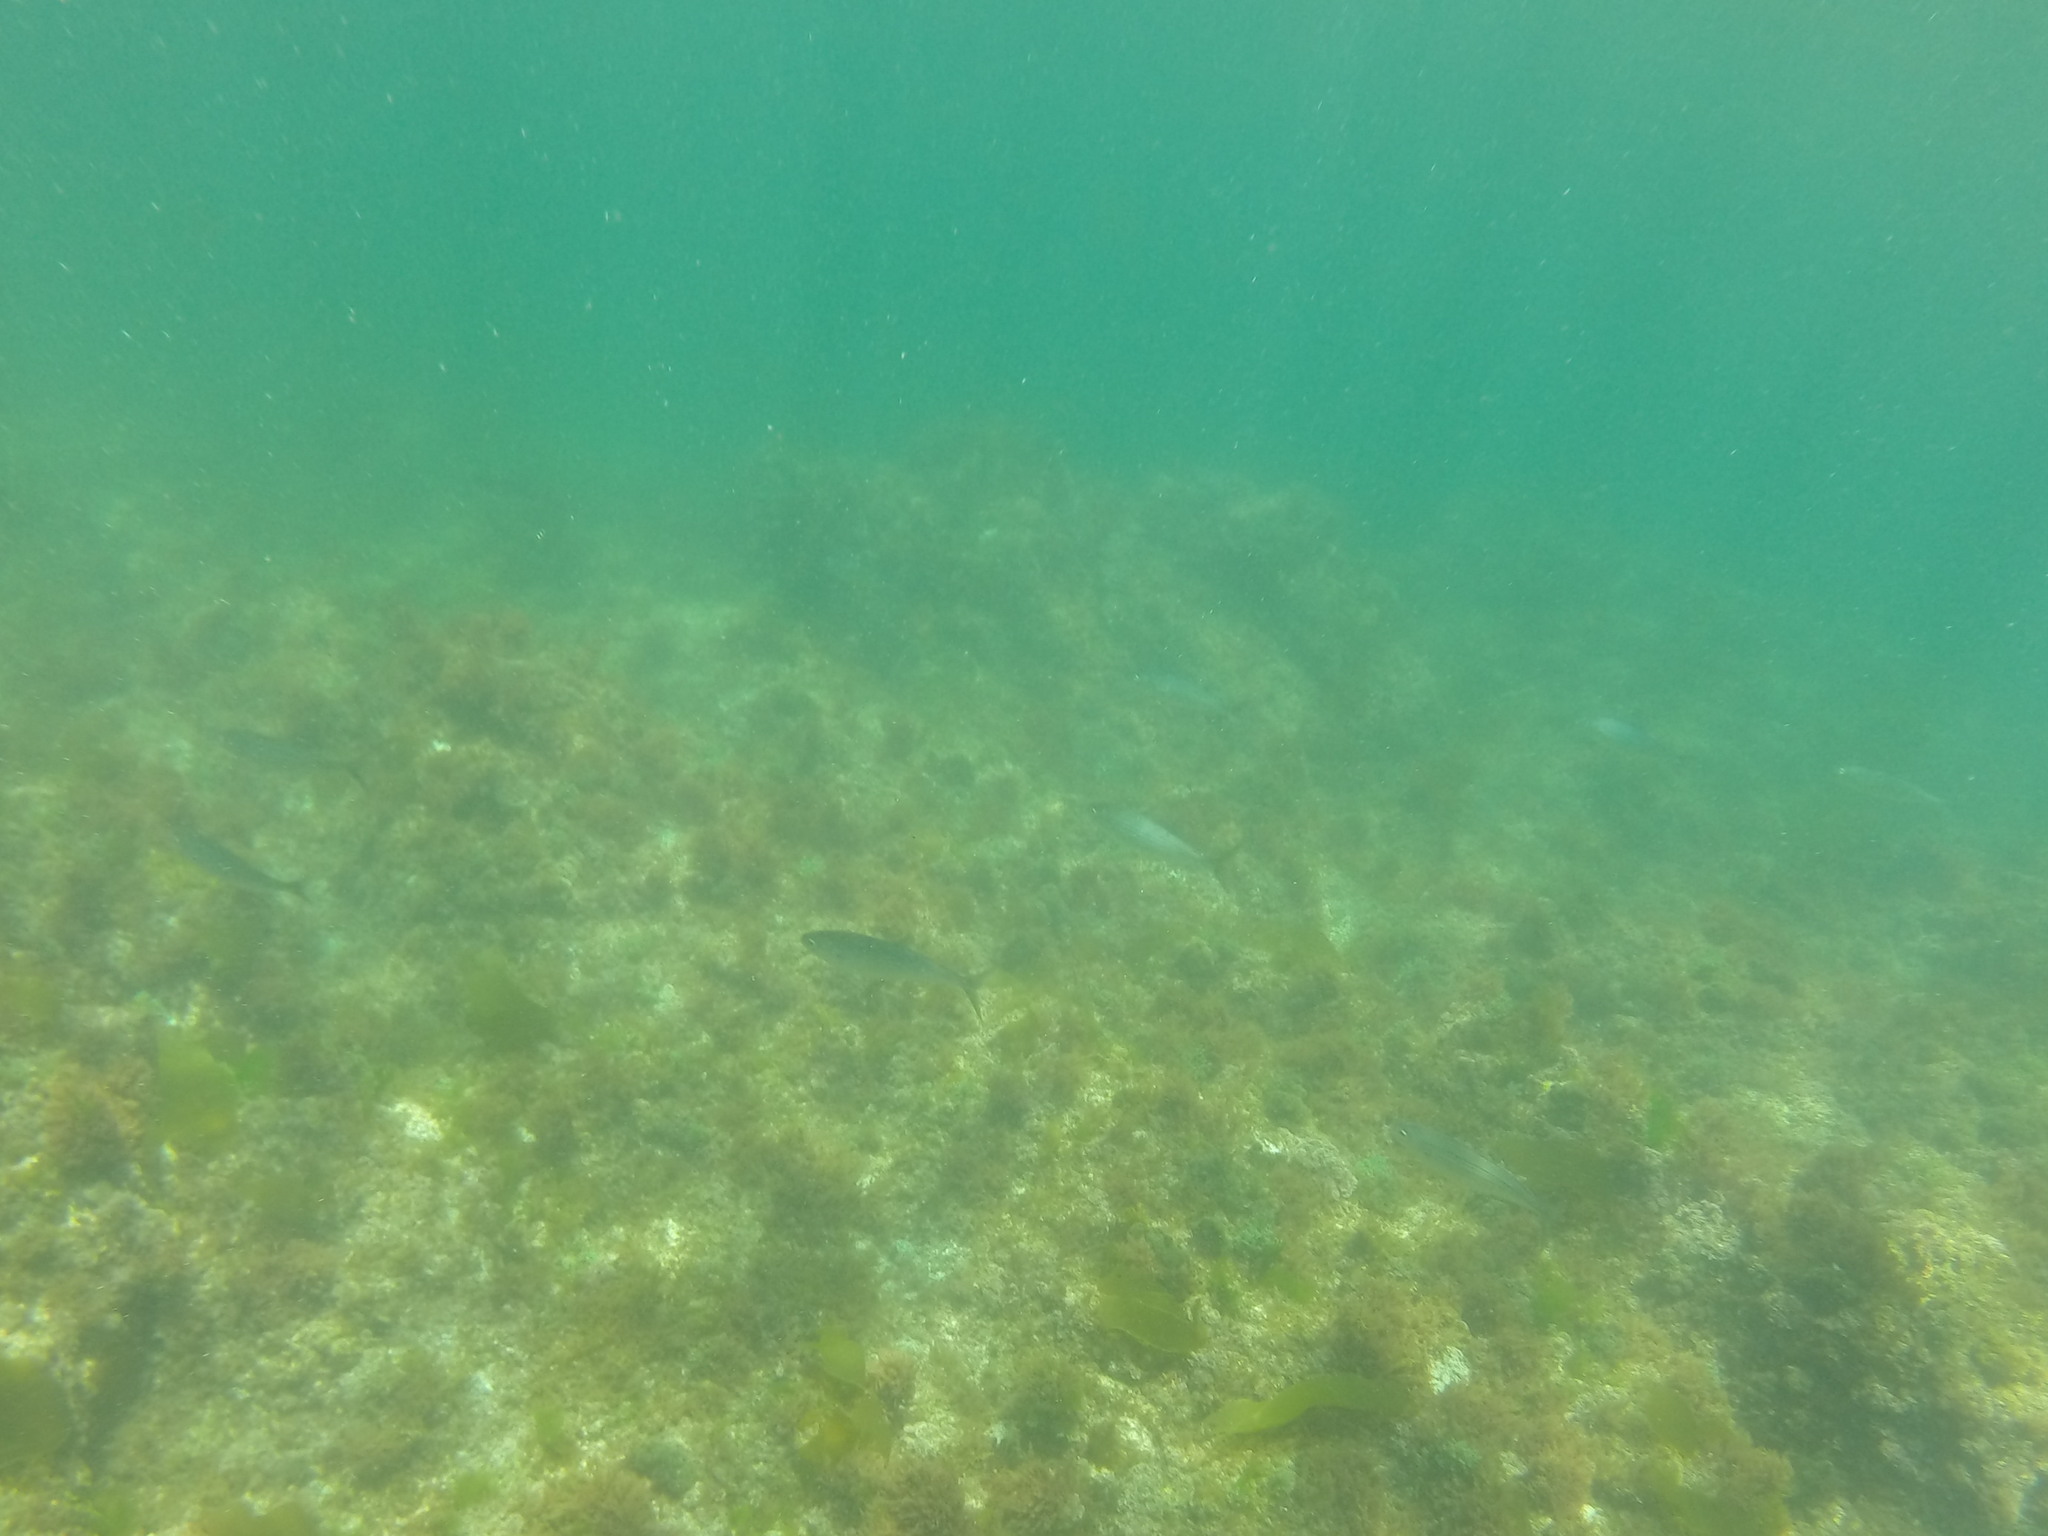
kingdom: Animalia
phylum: Chordata
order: Perciformes
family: Sparidae
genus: Boops
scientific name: Boops boops
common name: Bogue
